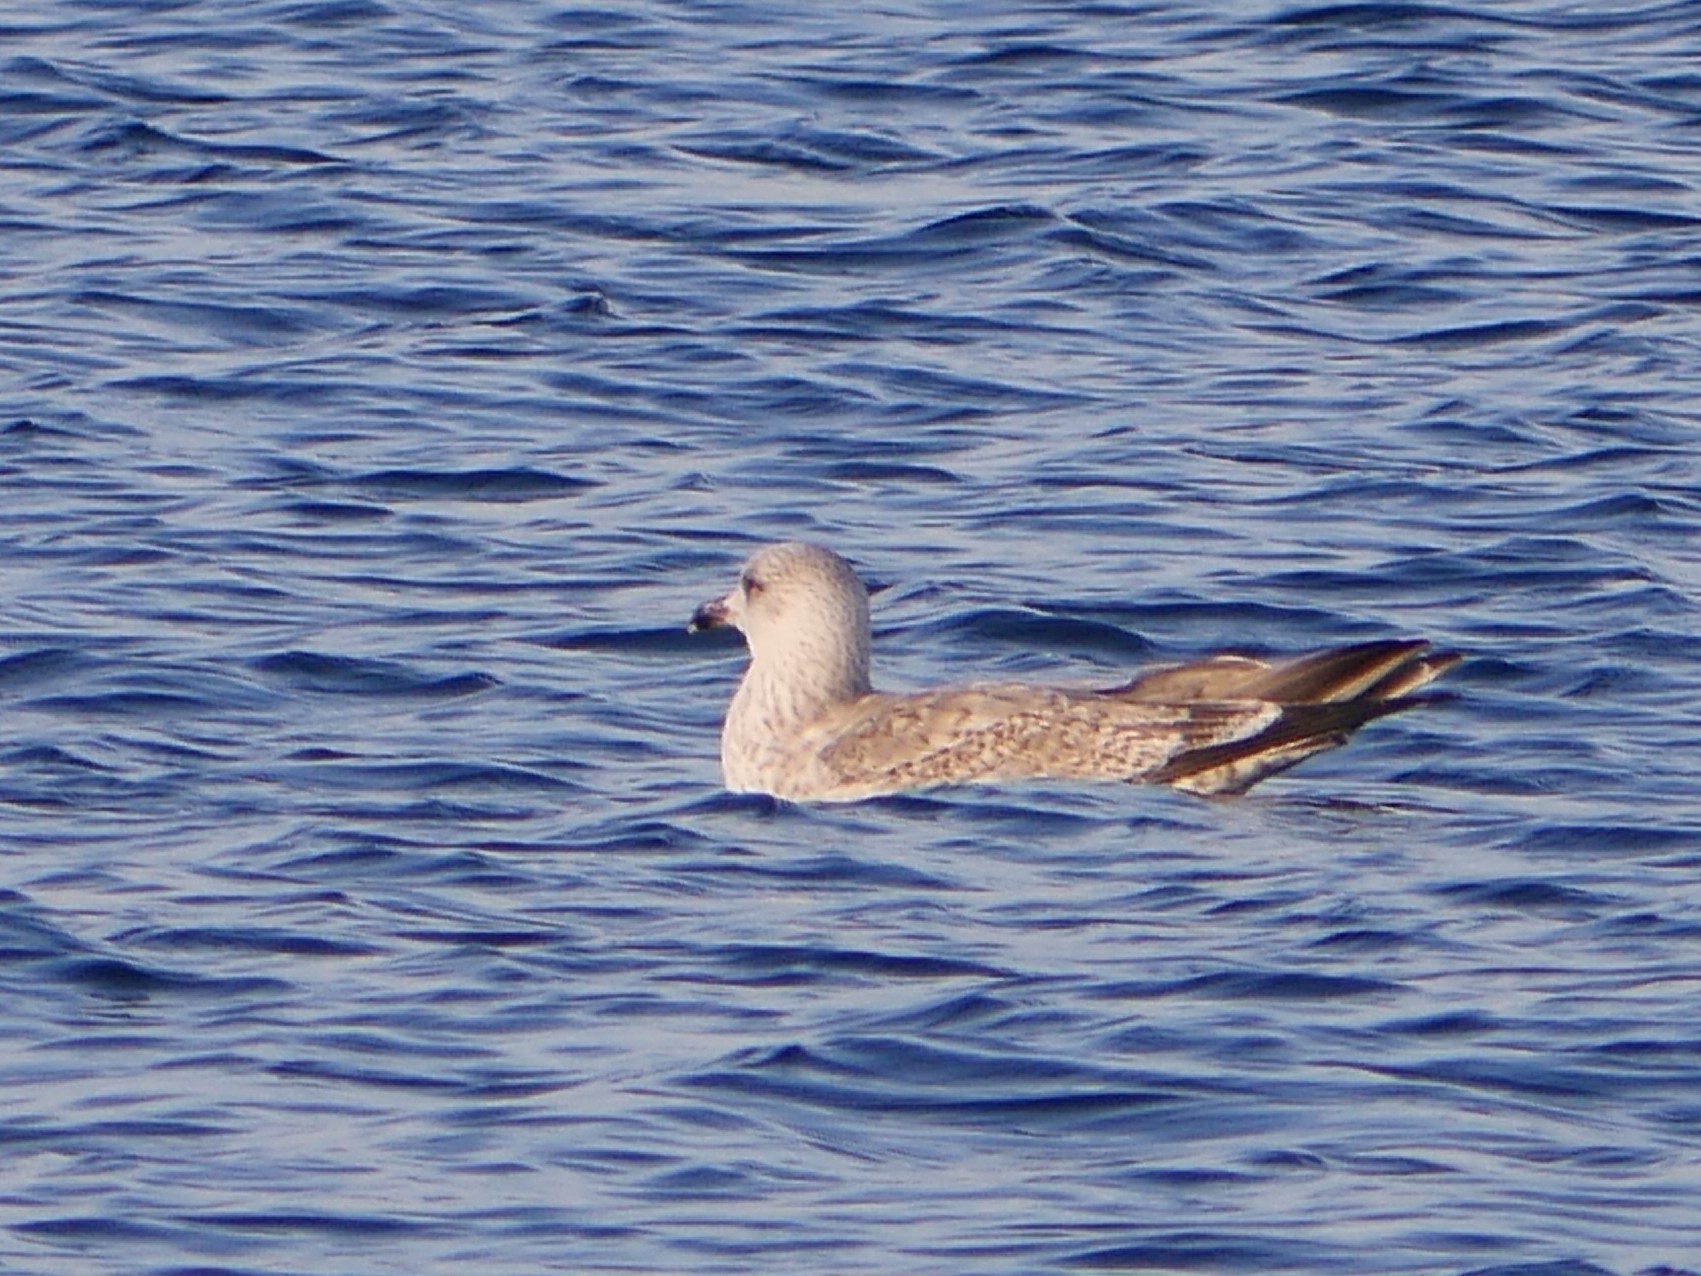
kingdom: Animalia
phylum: Chordata
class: Aves
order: Charadriiformes
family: Laridae
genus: Larus
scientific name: Larus argentatus
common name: Herring gull
